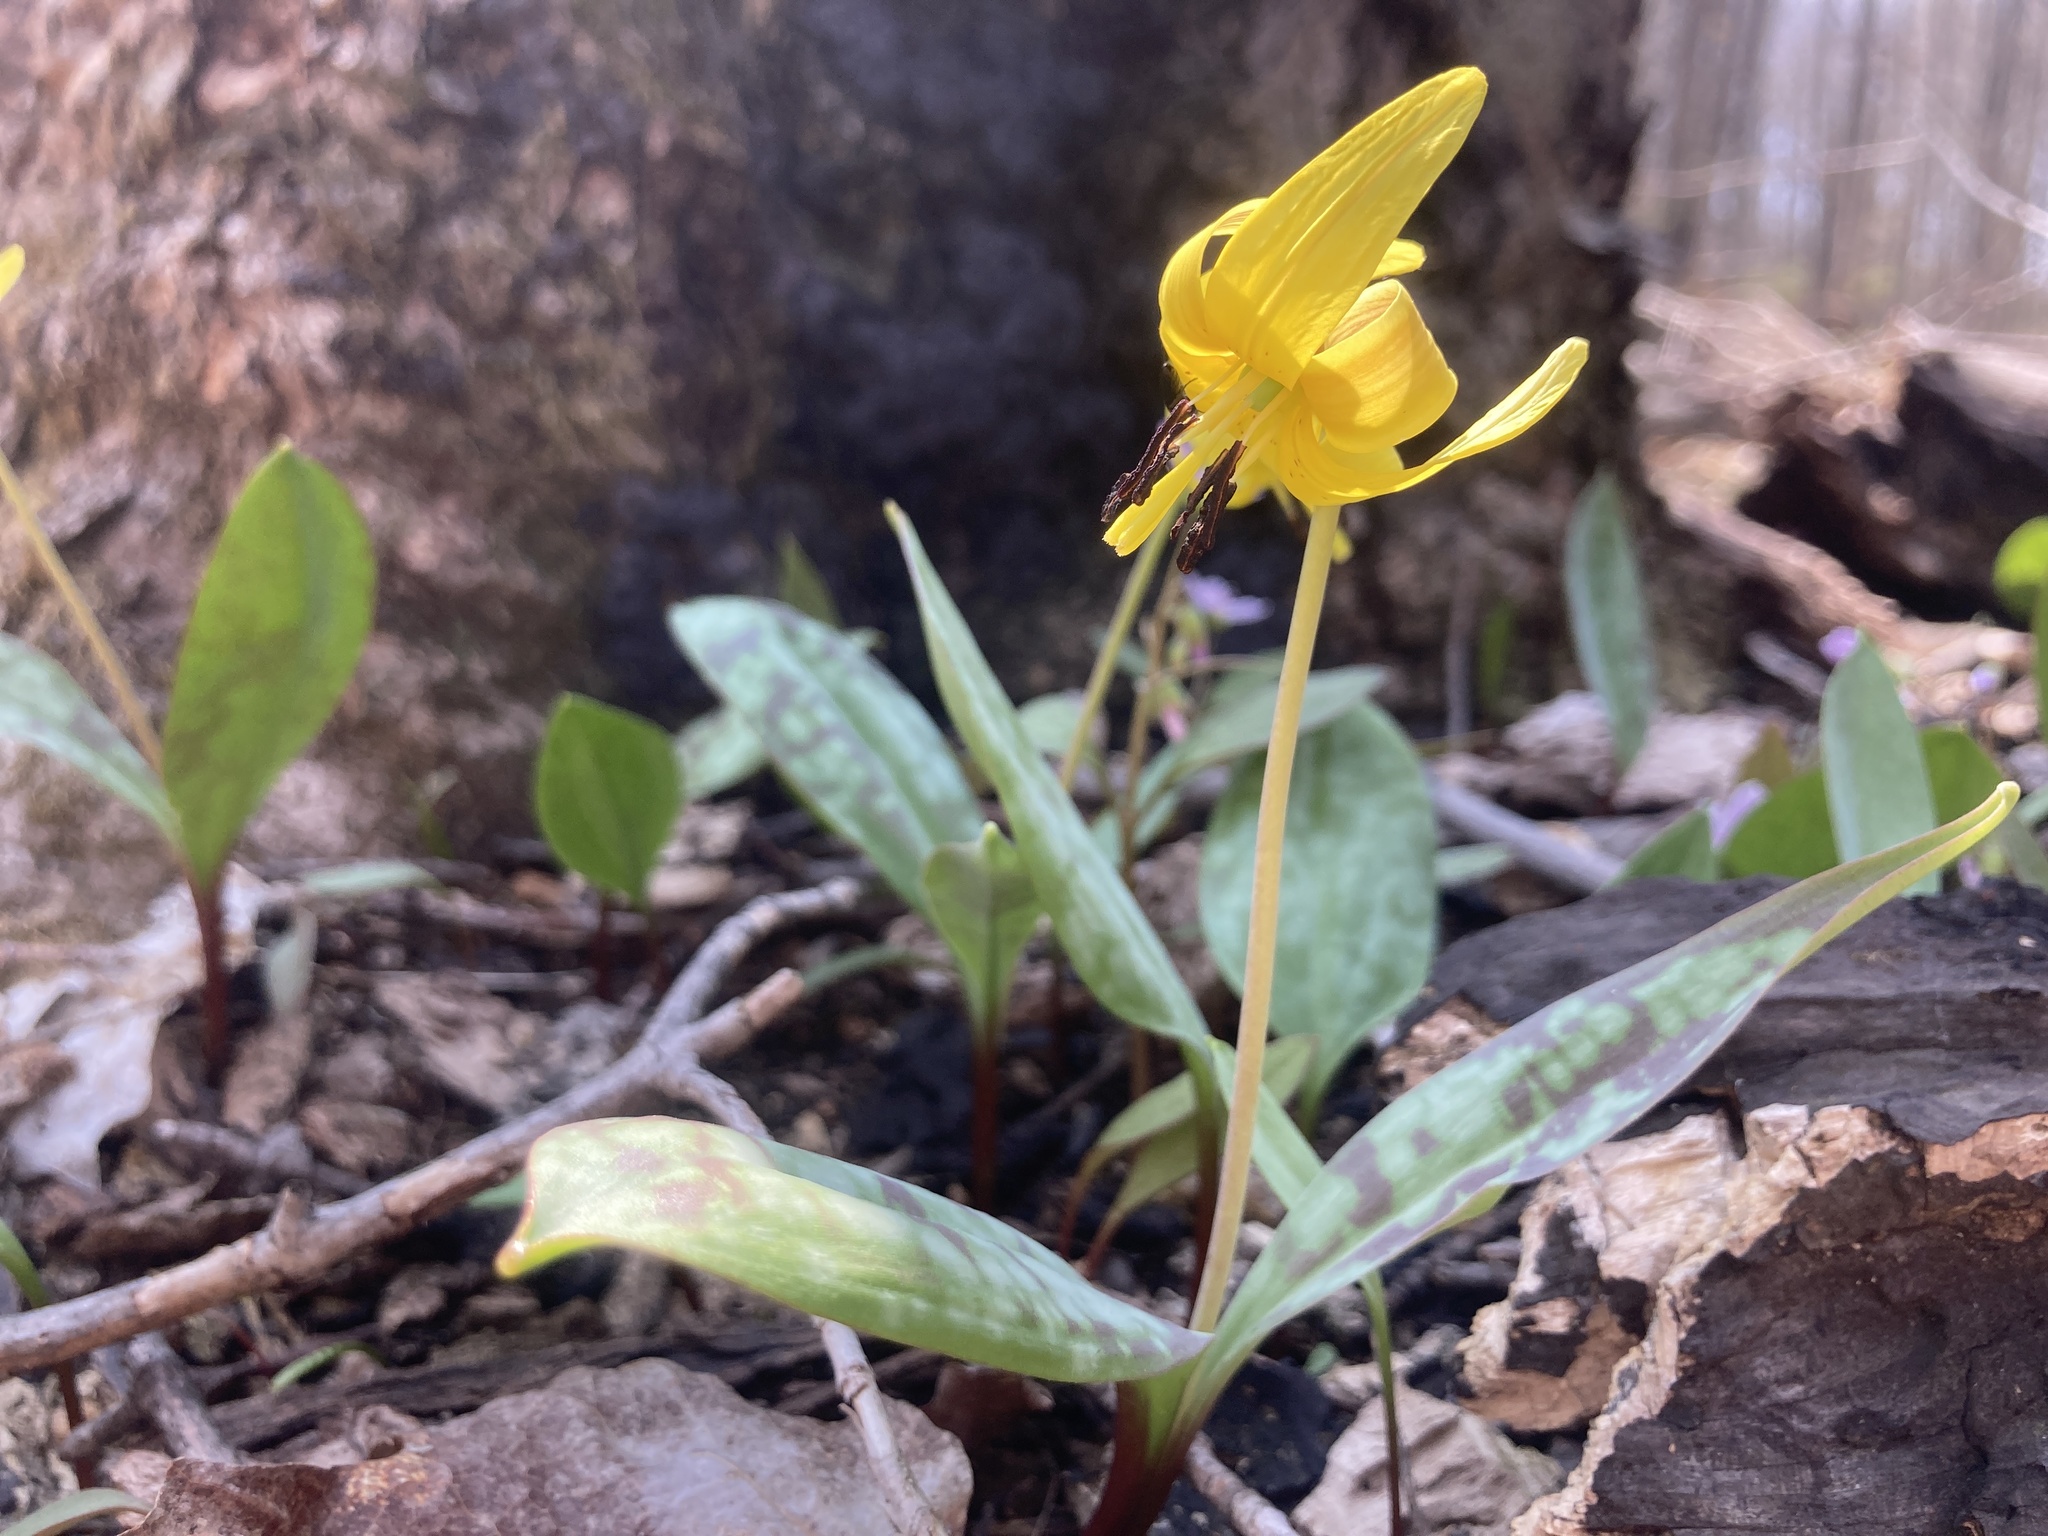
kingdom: Plantae
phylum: Tracheophyta
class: Liliopsida
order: Liliales
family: Liliaceae
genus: Erythronium
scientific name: Erythronium americanum
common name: Yellow adder's-tongue
